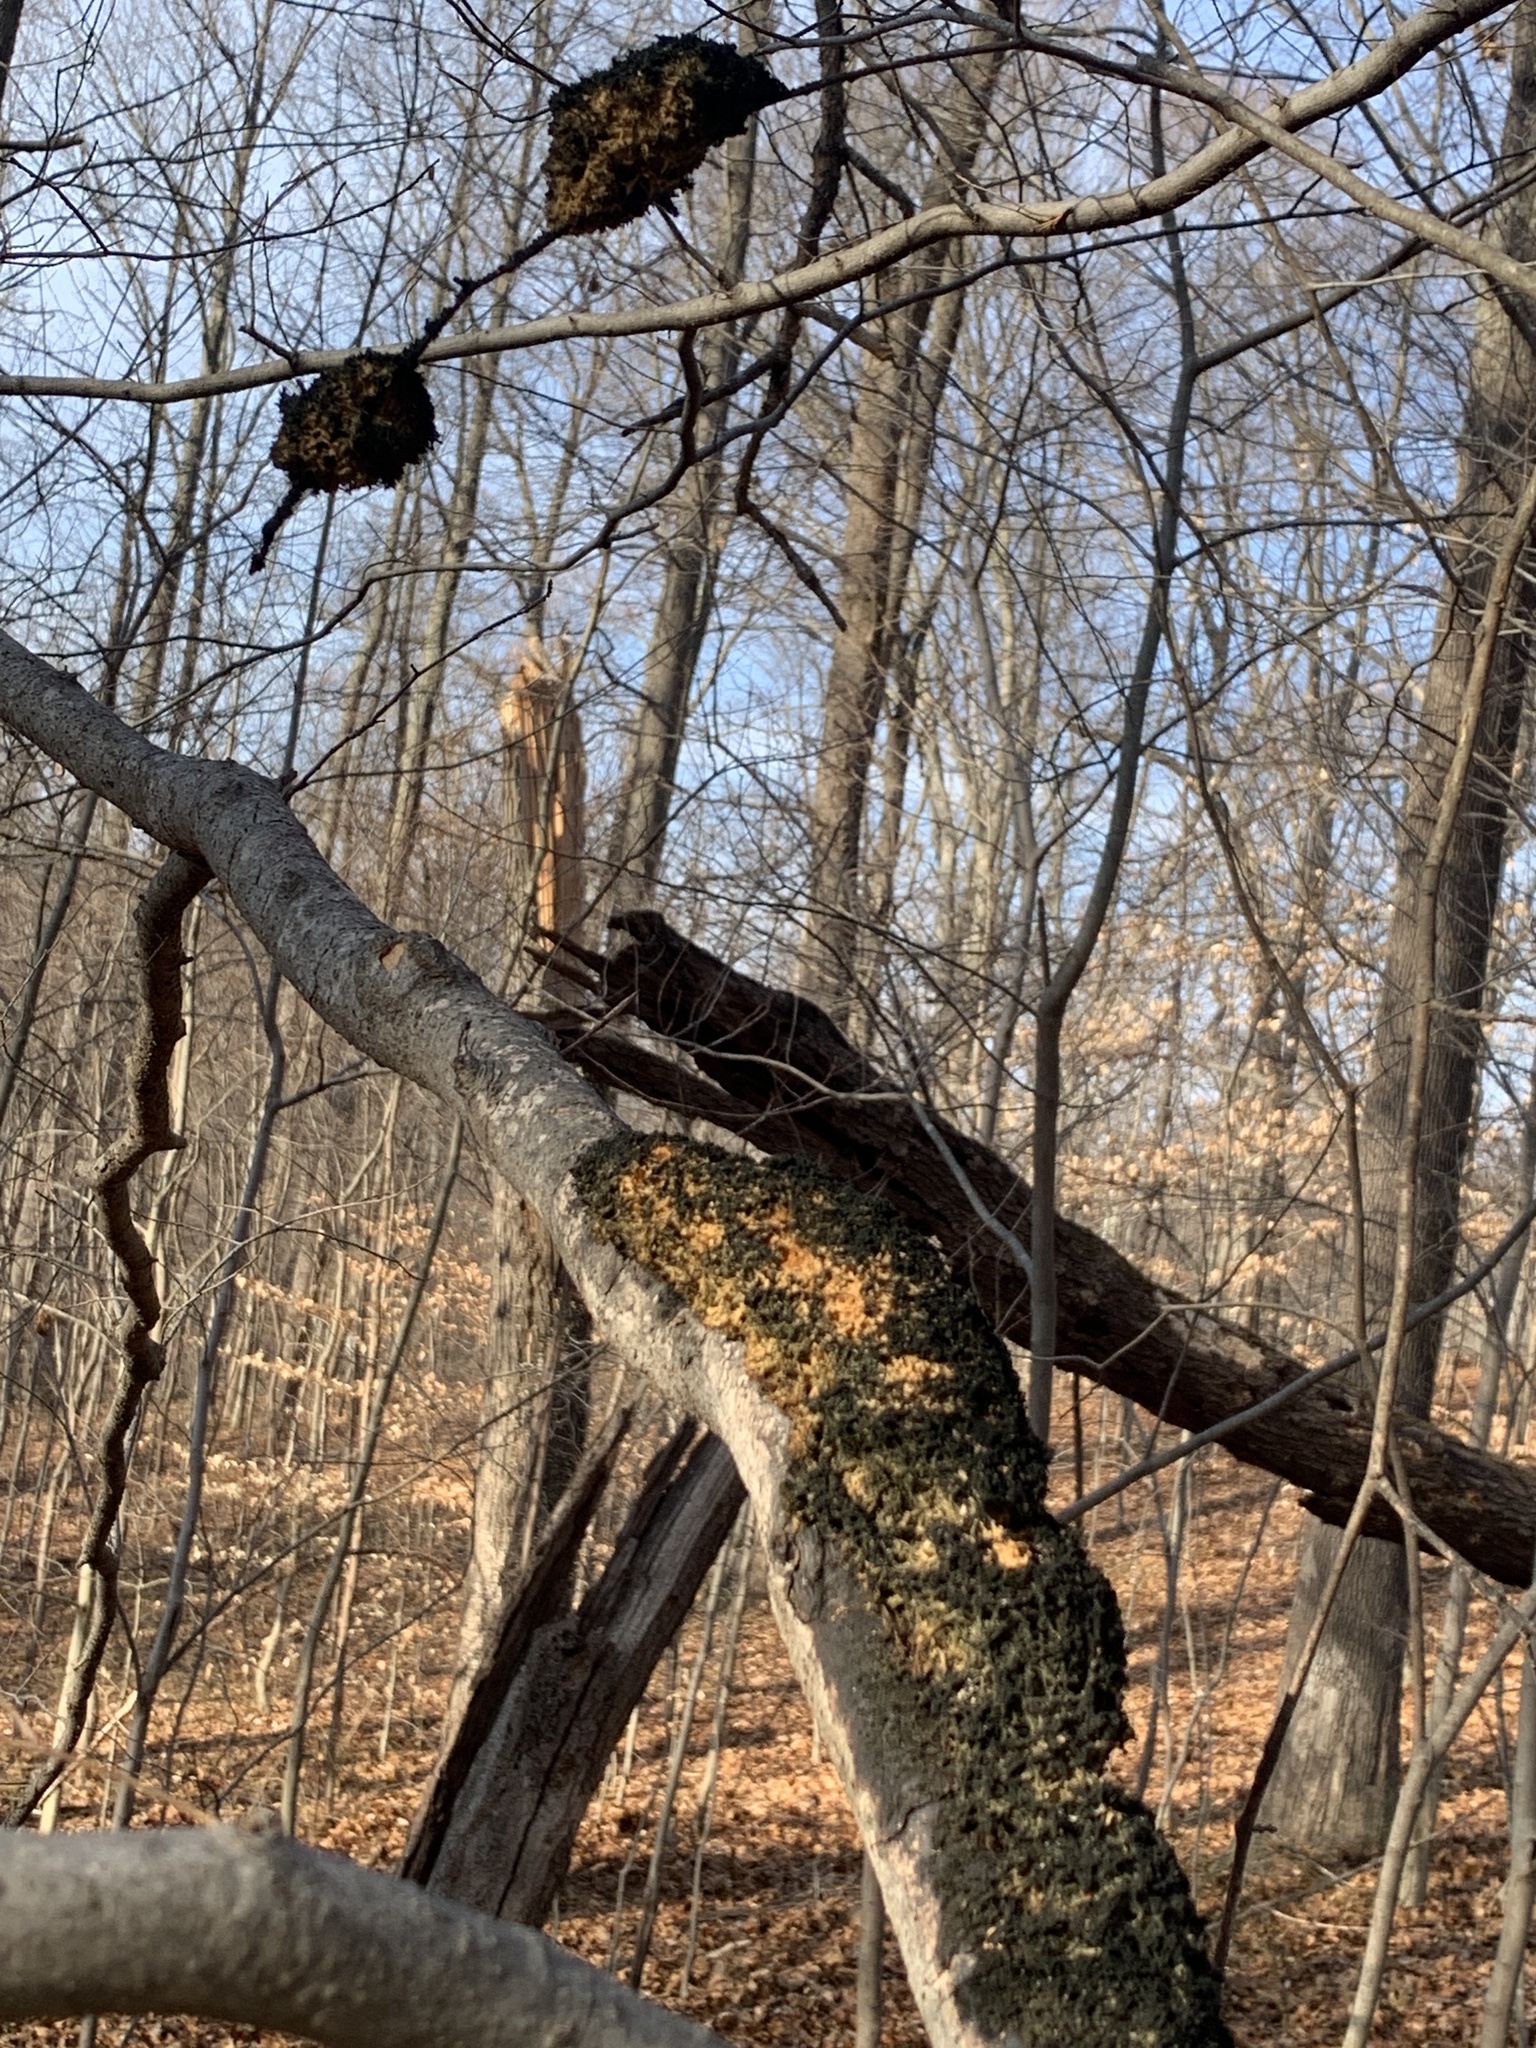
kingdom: Fungi
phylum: Ascomycota
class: Dothideomycetes
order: Capnodiales
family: Capnodiaceae
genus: Scorias
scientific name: Scorias spongiosa
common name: Black sooty mold
